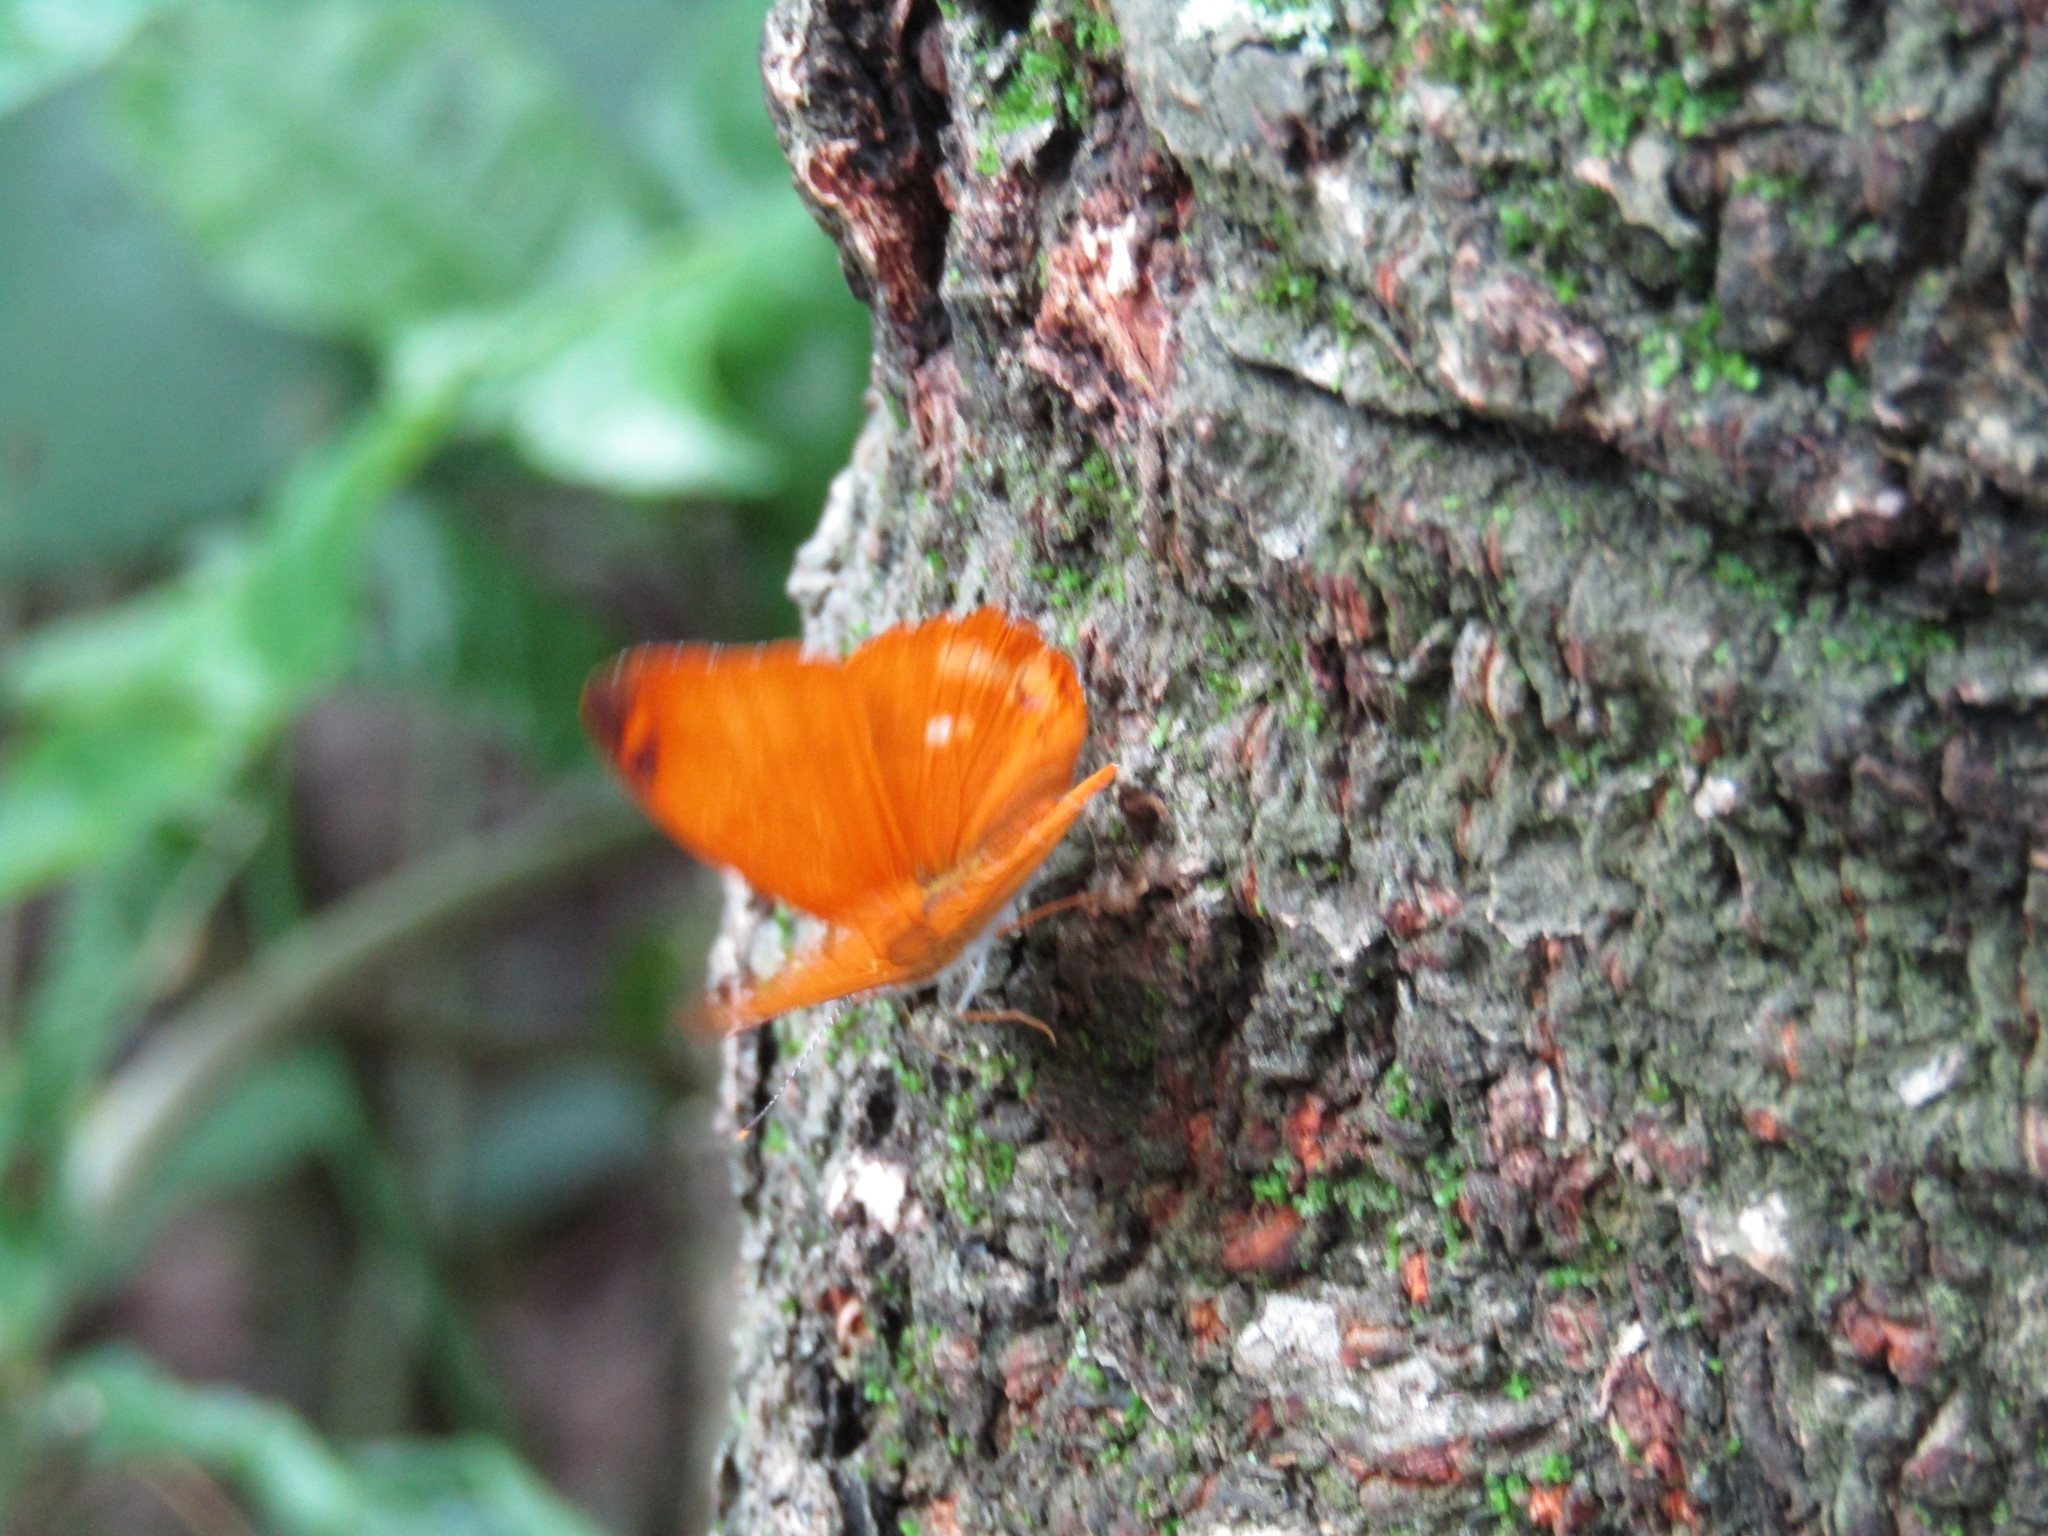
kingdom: Animalia
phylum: Arthropoda
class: Insecta
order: Lepidoptera
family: Nymphalidae
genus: Temenis
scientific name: Temenis laothoe
